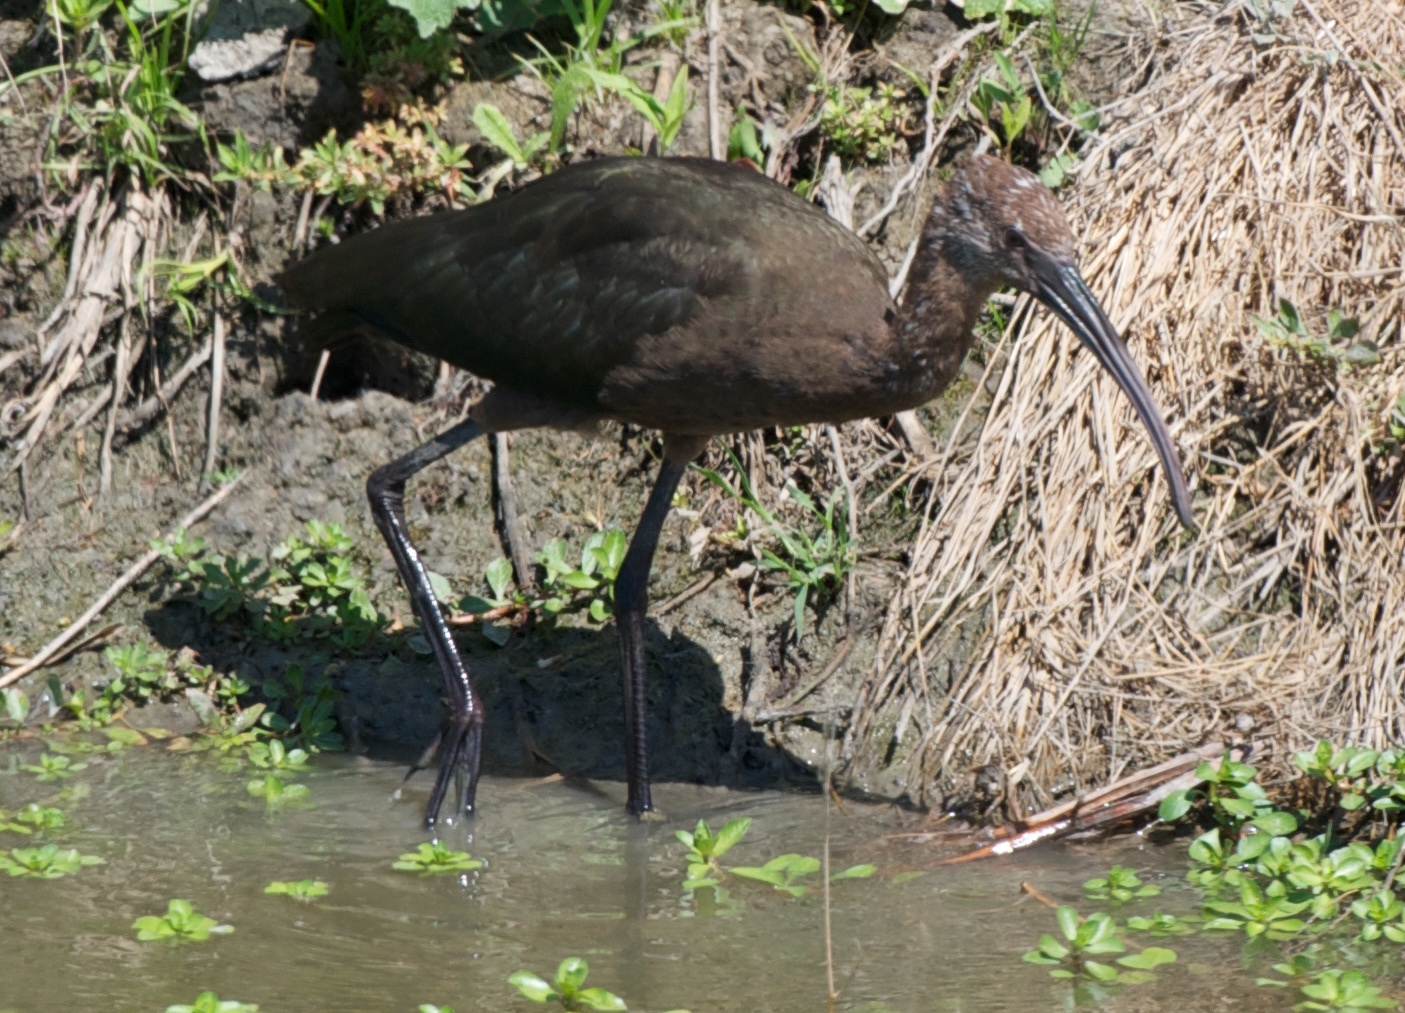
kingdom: Animalia
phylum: Chordata
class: Aves
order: Pelecaniformes
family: Threskiornithidae
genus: Plegadis
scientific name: Plegadis chihi
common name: White-faced ibis
